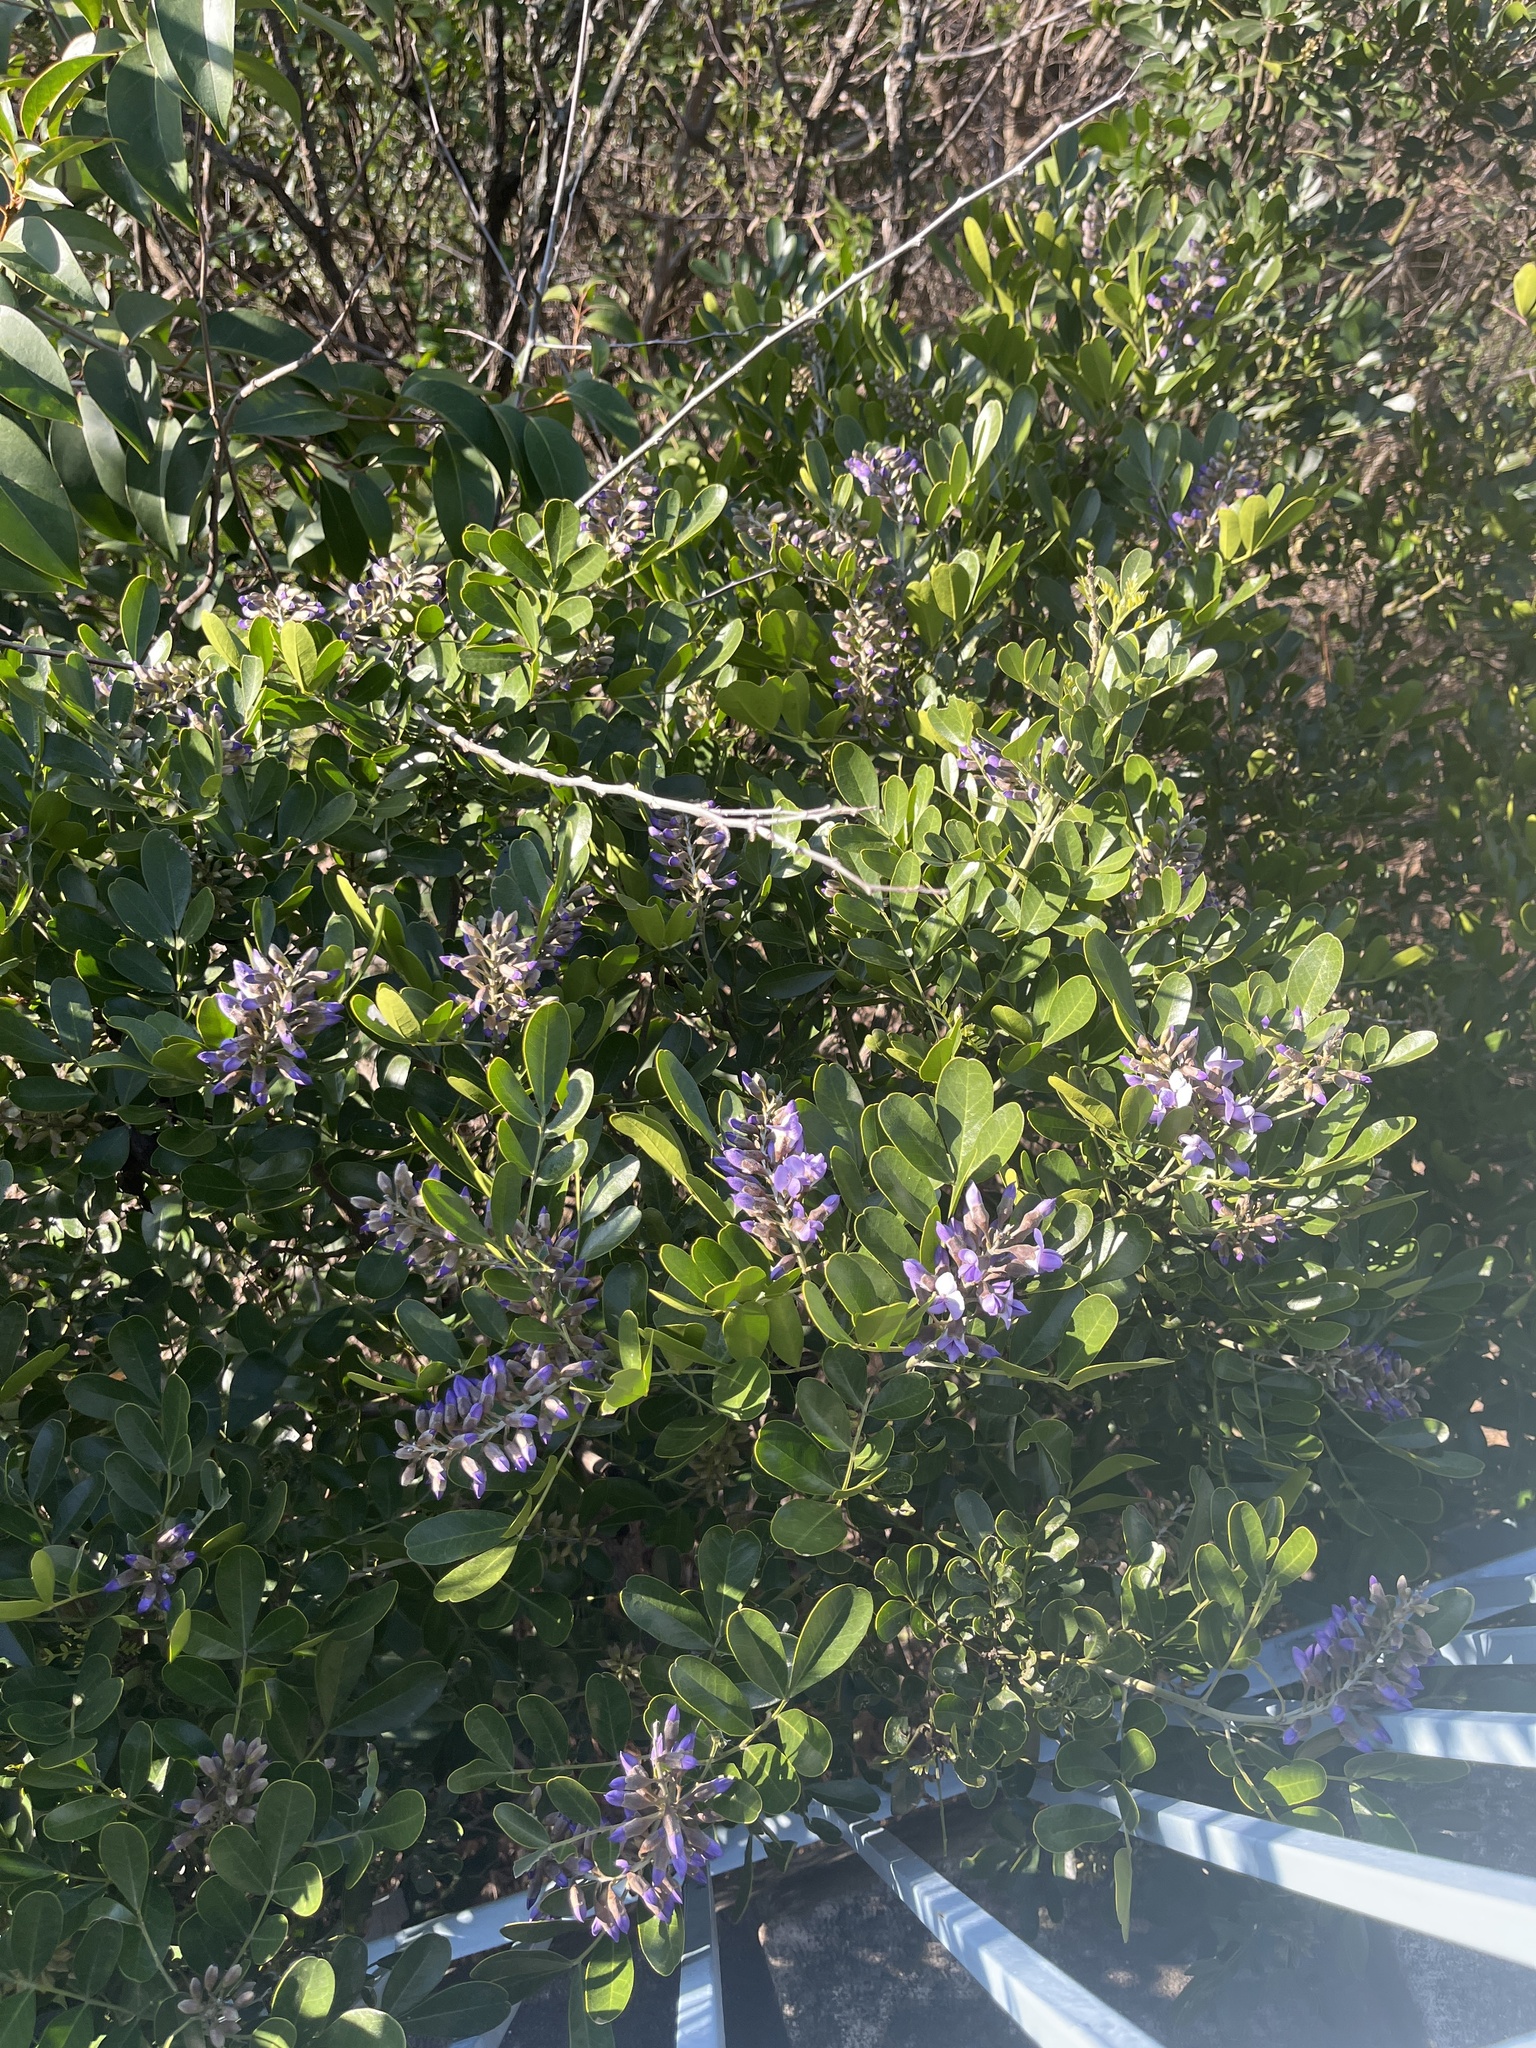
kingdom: Plantae
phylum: Tracheophyta
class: Magnoliopsida
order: Fabales
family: Fabaceae
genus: Dermatophyllum
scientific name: Dermatophyllum secundiflorum
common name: Texas-mountain-laurel
